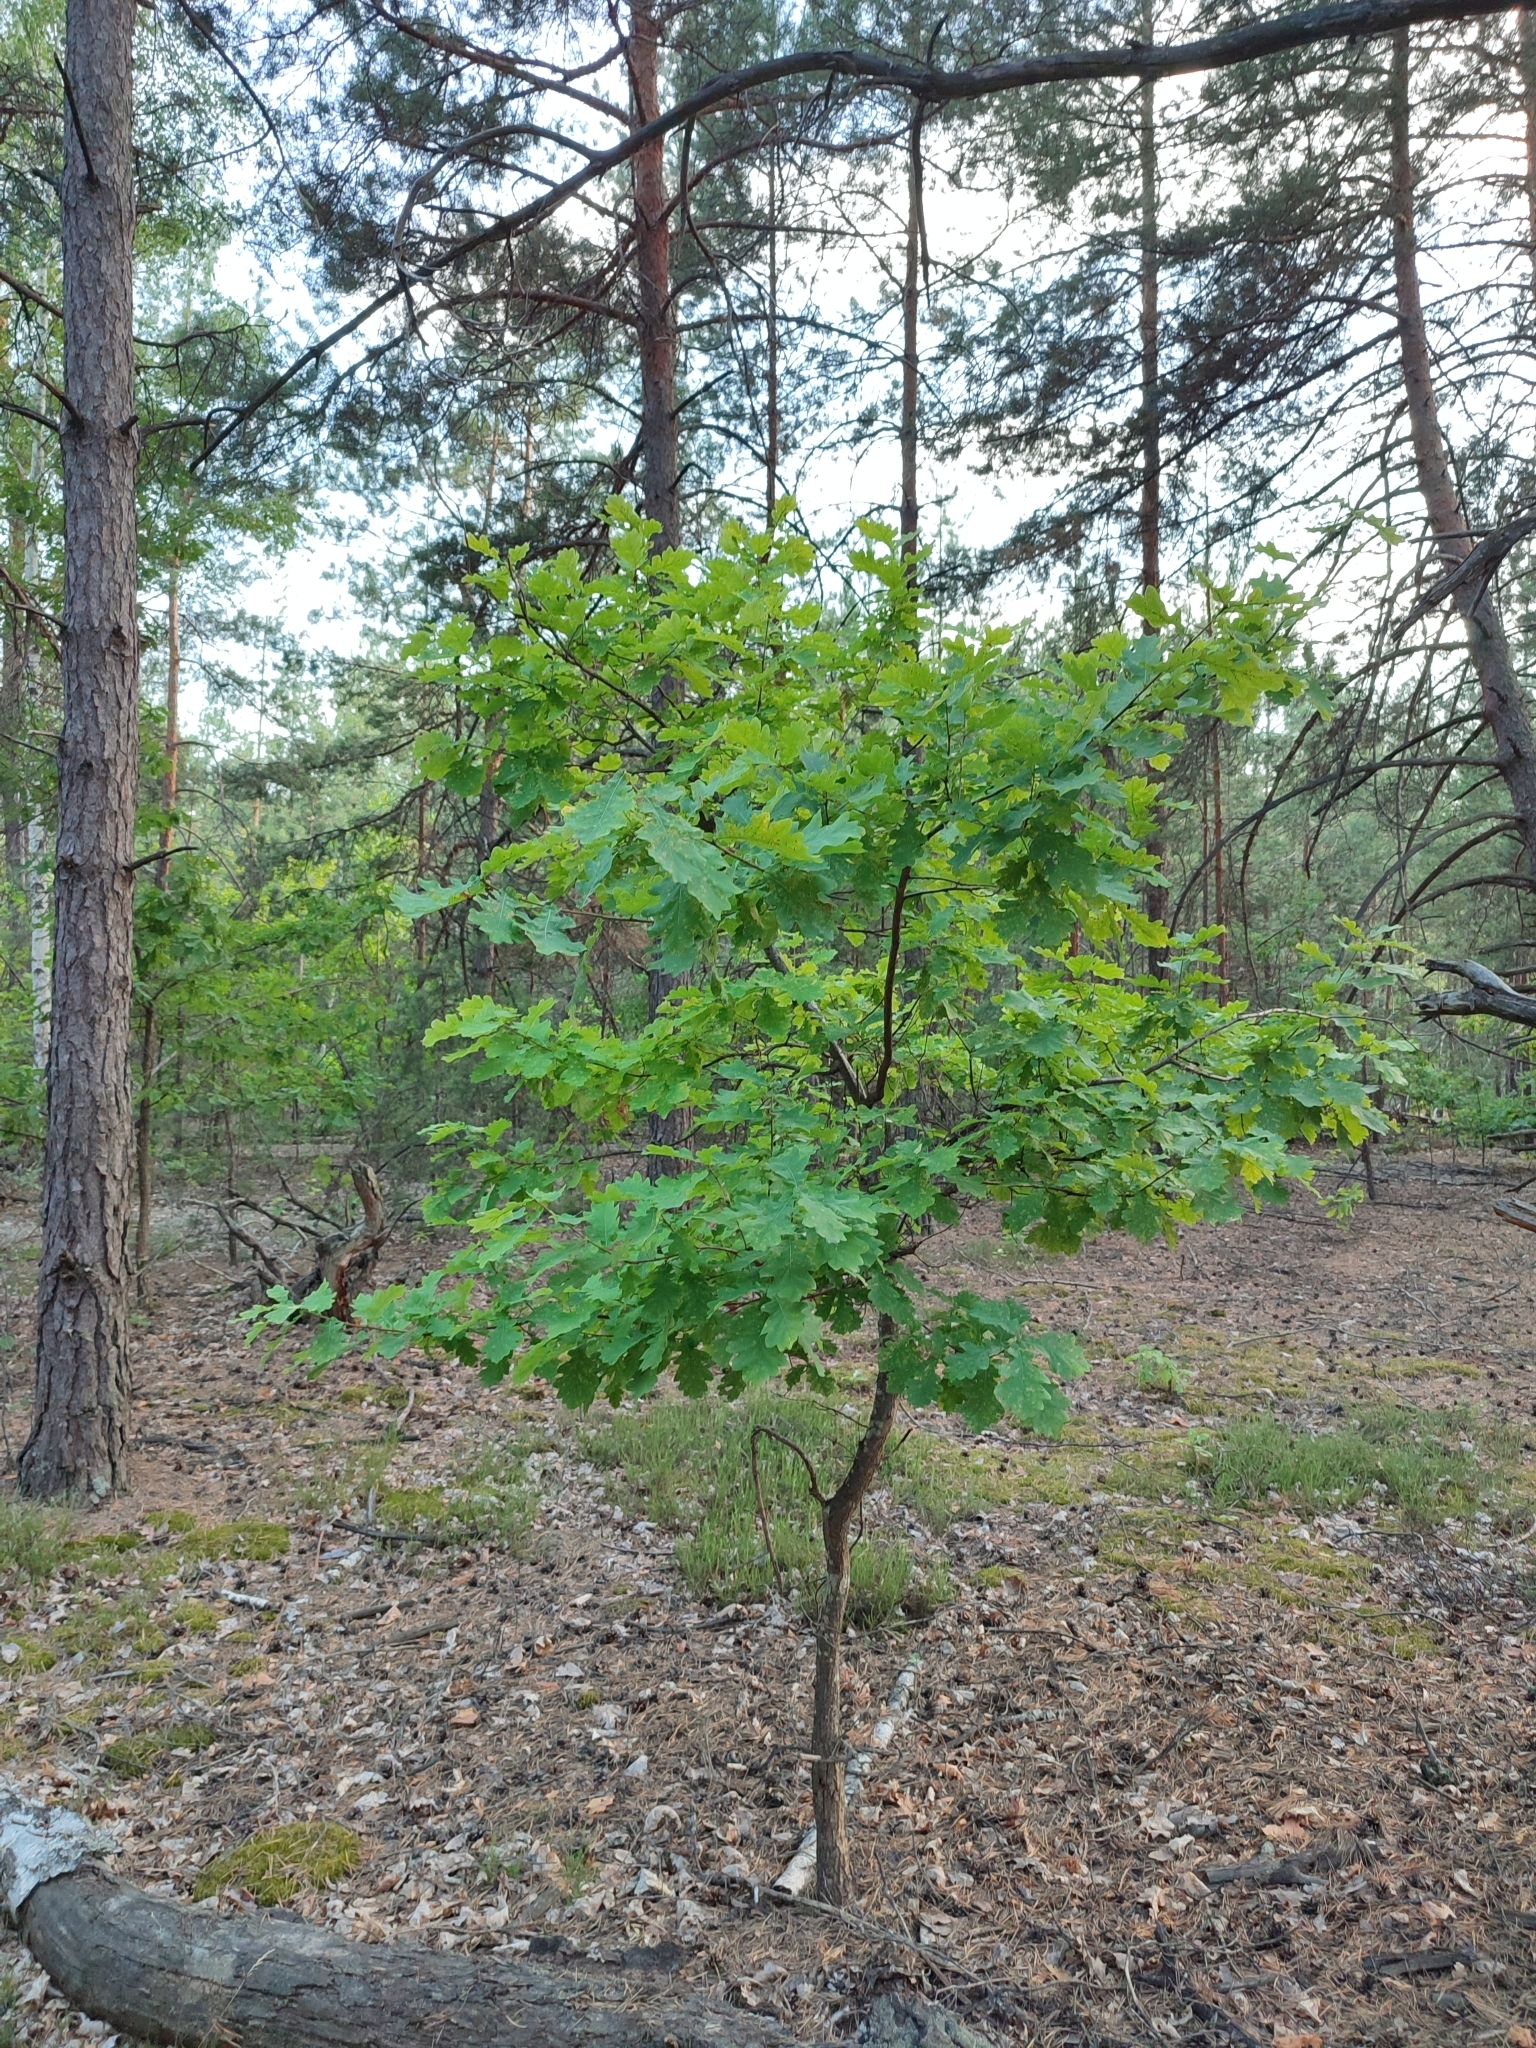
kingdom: Plantae
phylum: Tracheophyta
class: Magnoliopsida
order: Fagales
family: Fagaceae
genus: Quercus
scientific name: Quercus robur
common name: Pedunculate oak
